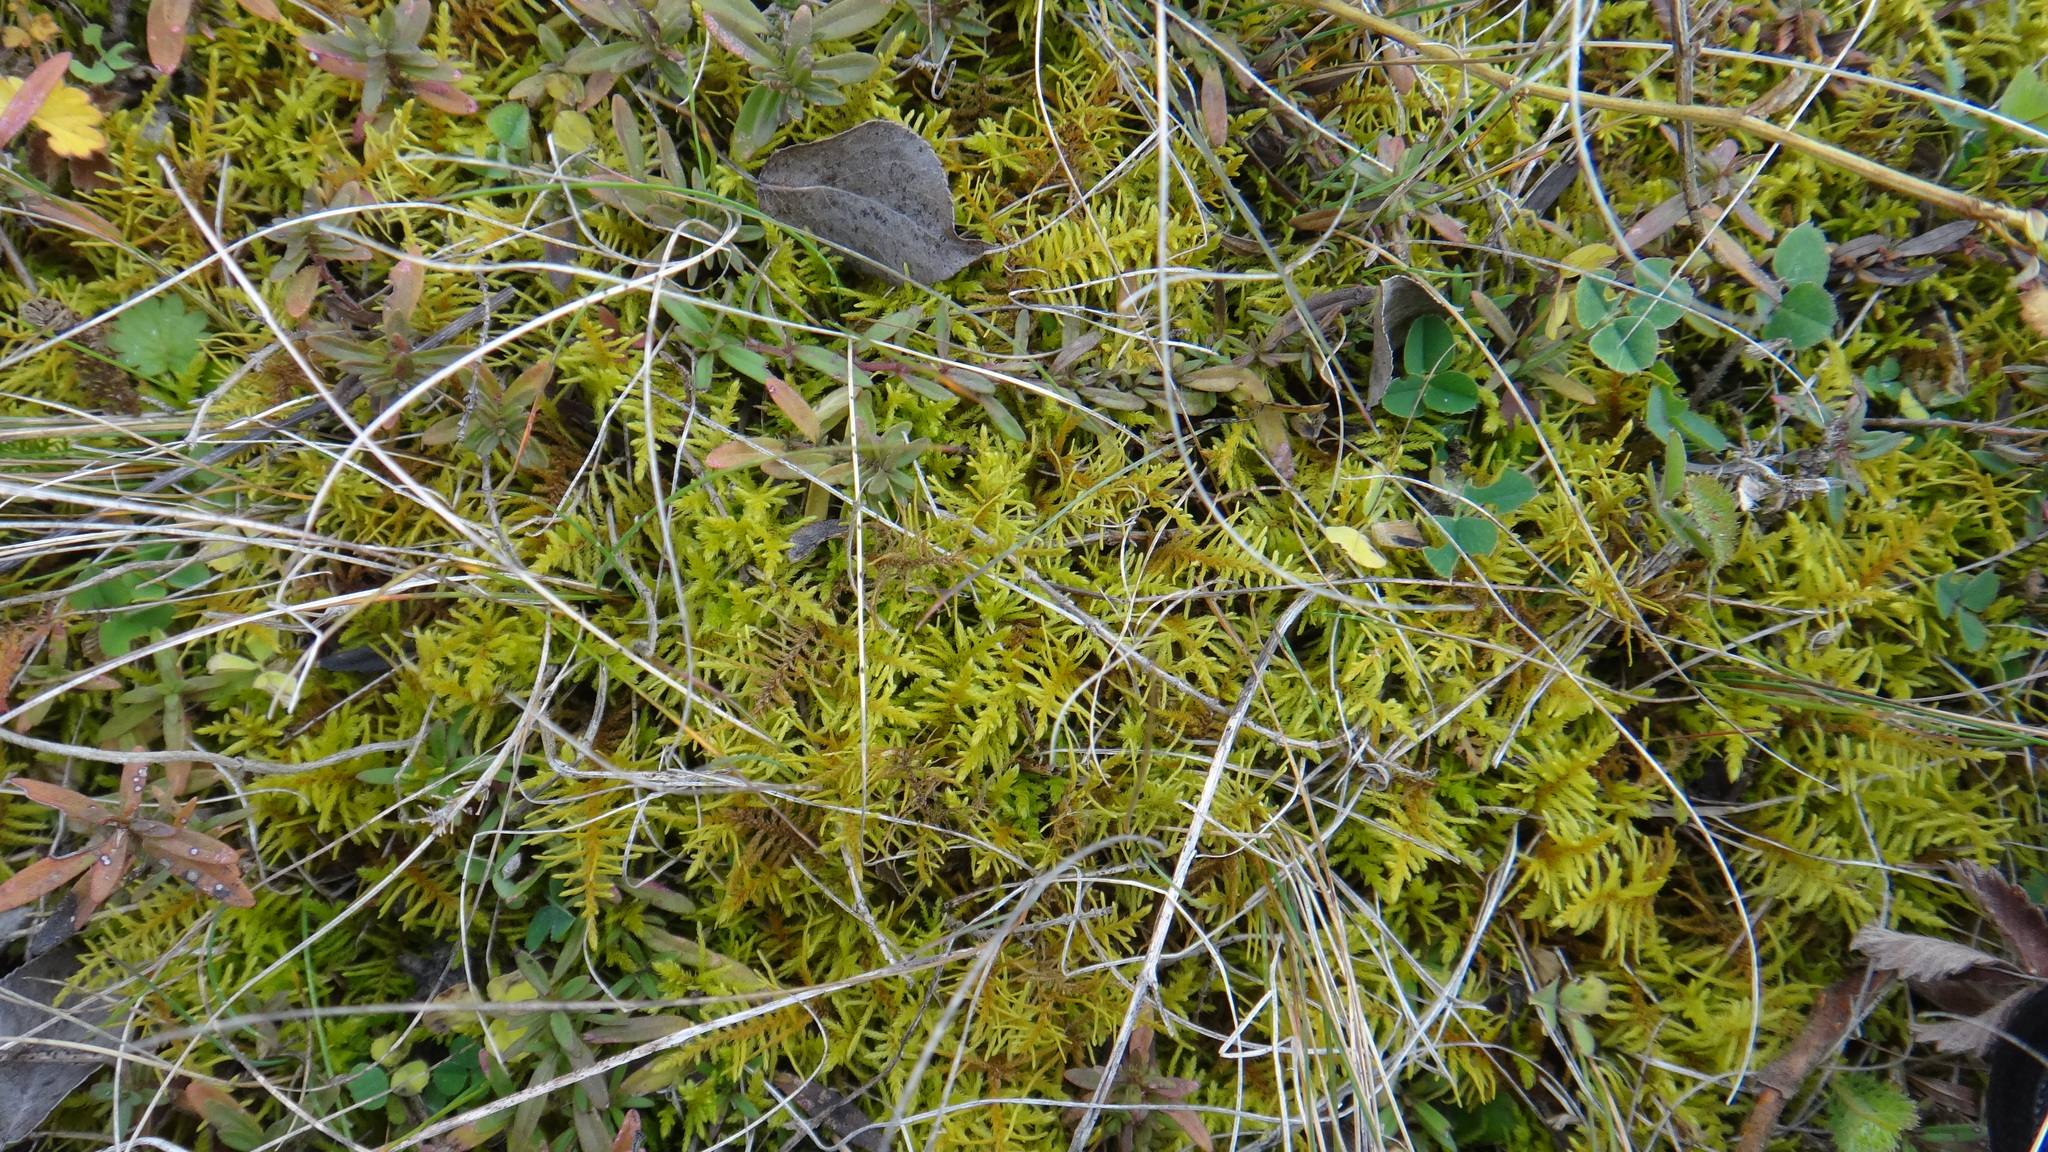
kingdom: Plantae
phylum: Bryophyta
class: Bryopsida
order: Hypnales
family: Thuidiaceae
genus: Abietinella
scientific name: Abietinella abietina
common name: Wiry fern moss
